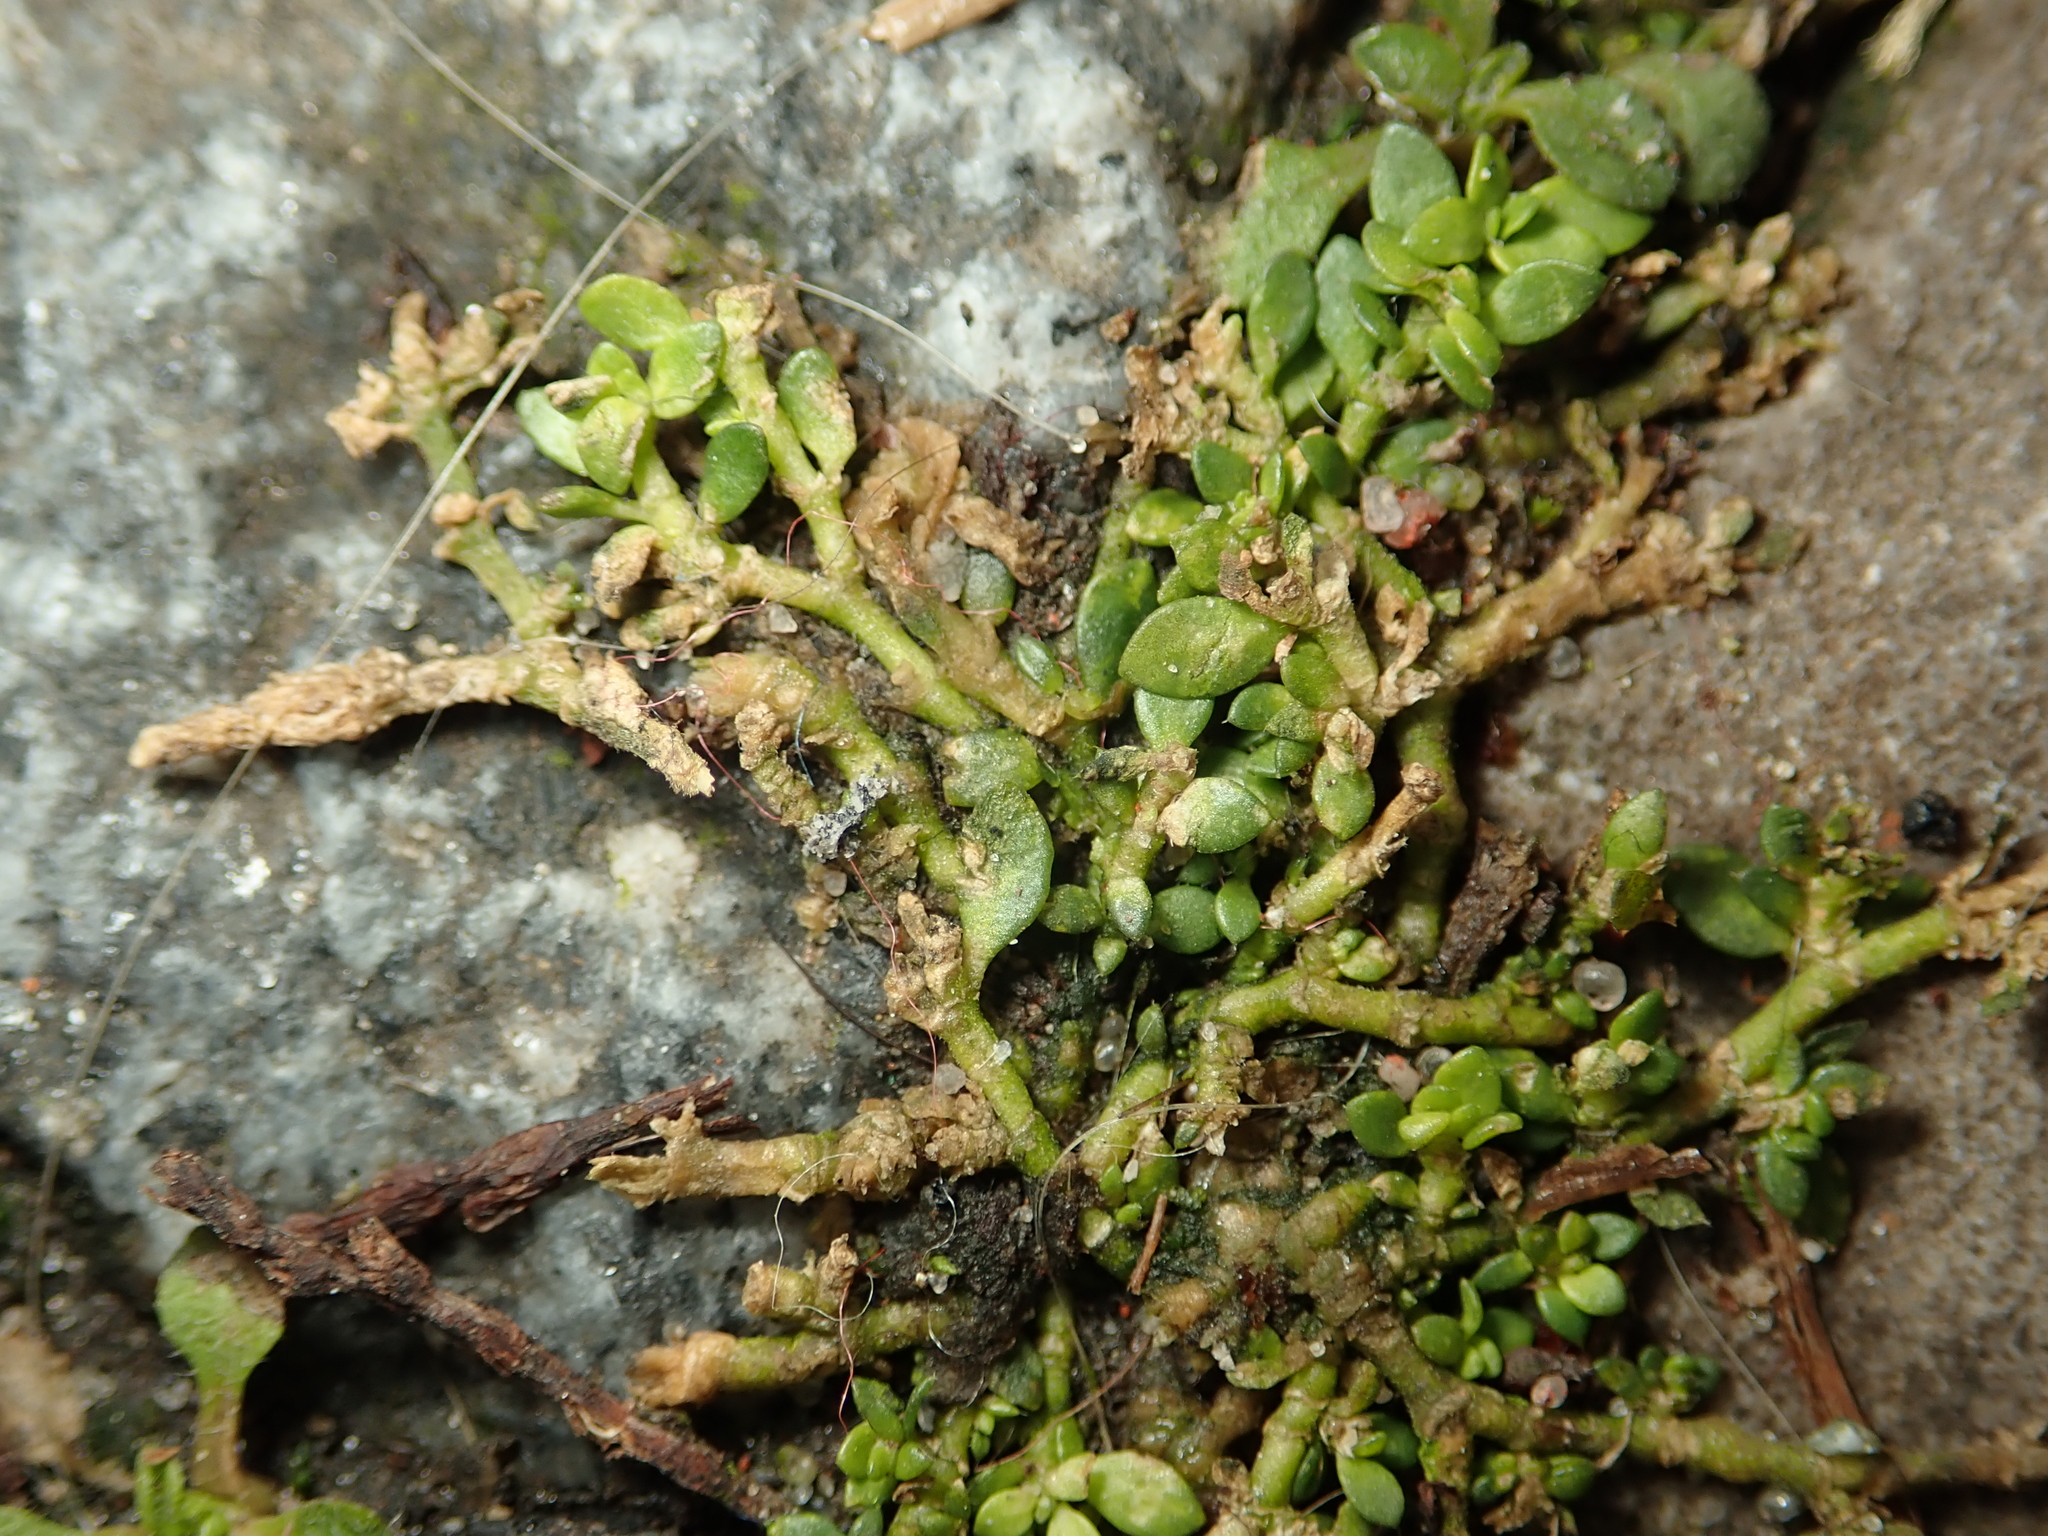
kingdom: Plantae
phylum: Tracheophyta
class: Magnoliopsida
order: Caryophyllales
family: Caryophyllaceae
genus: Herniaria
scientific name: Herniaria glabra
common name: Smooth rupturewort
